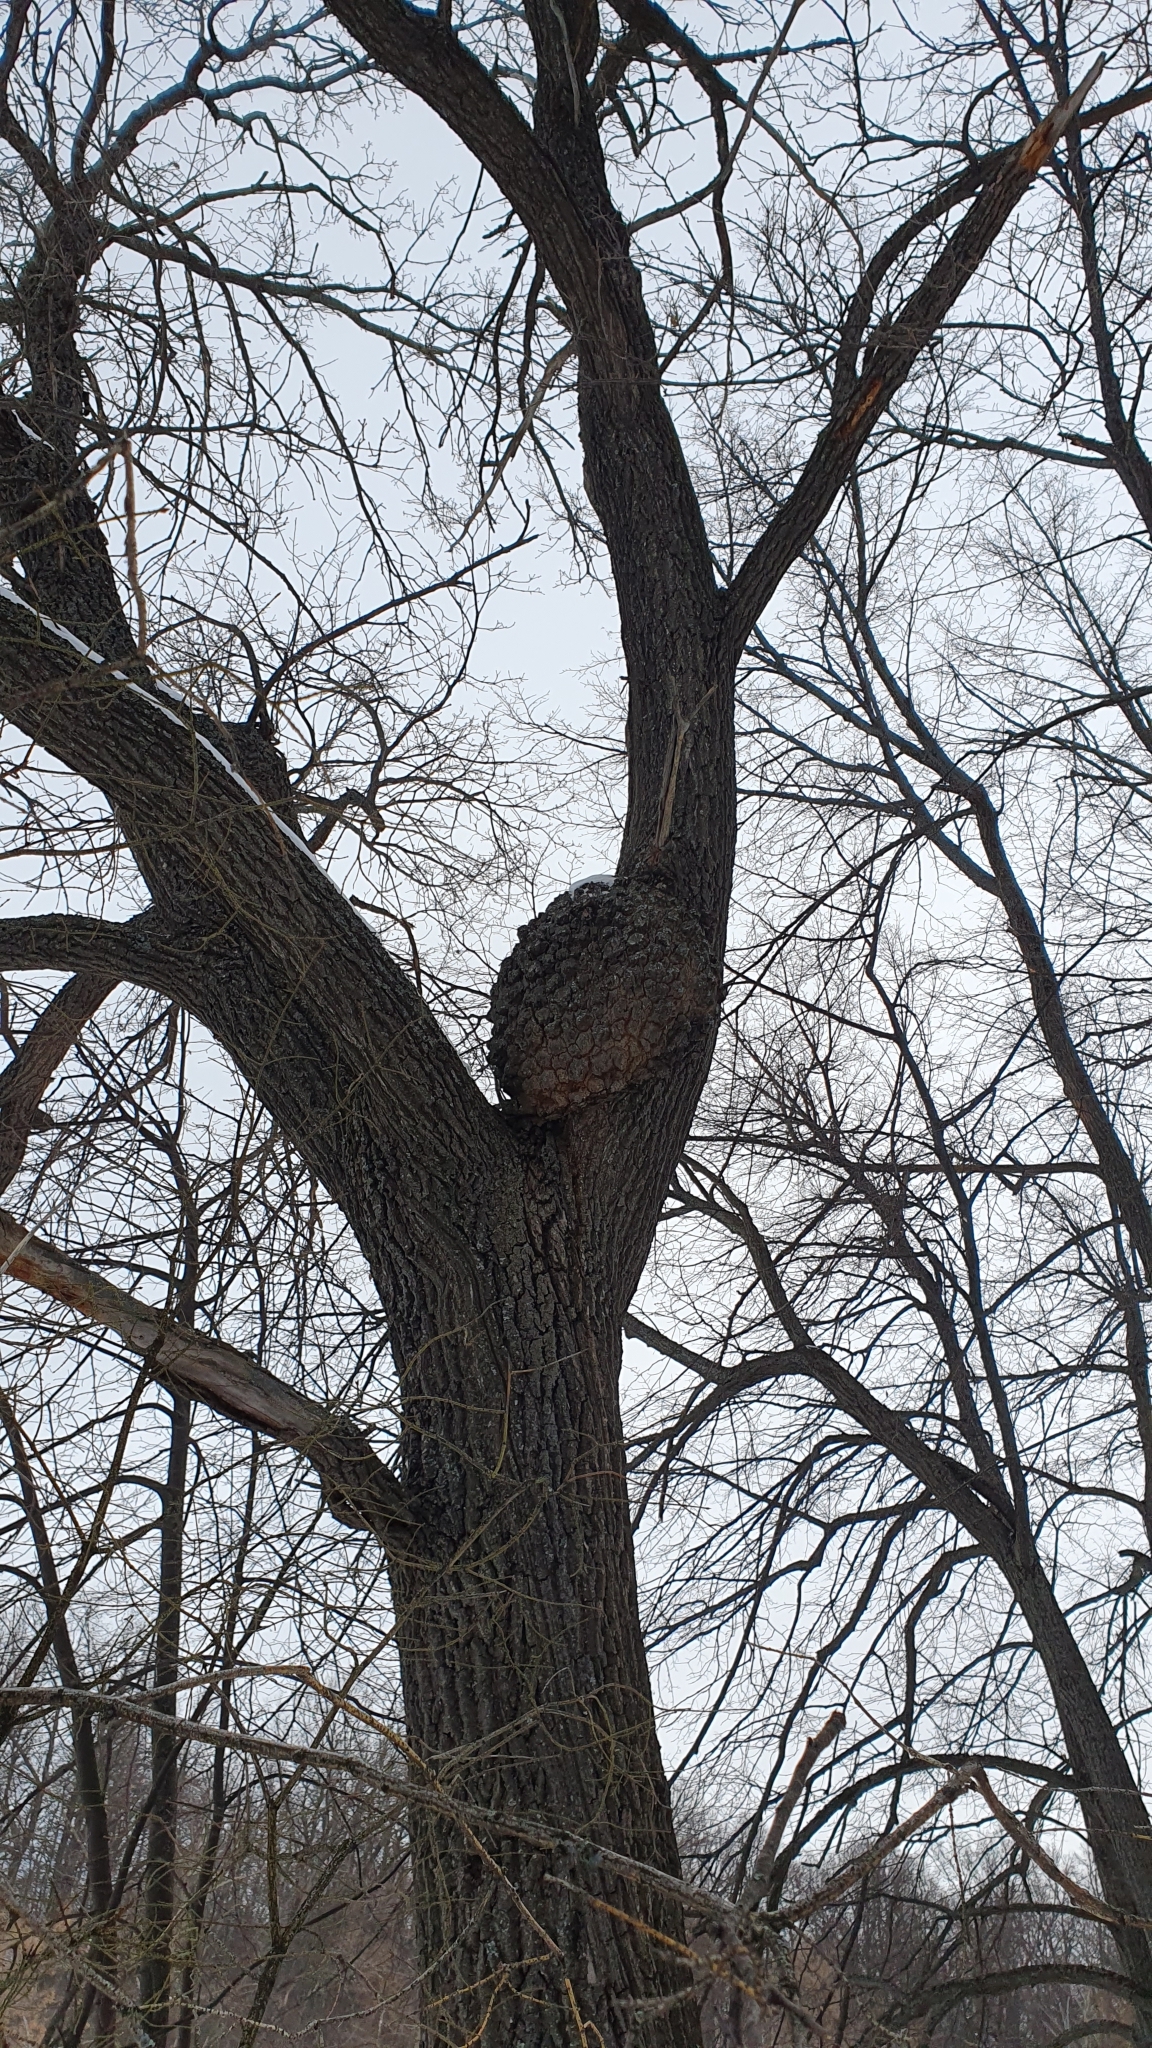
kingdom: Bacteria
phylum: Proteobacteria
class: Alphaproteobacteria
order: Rhizobiales
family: Rhizobiaceae
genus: Rhizobium
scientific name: Rhizobium Agrobacterium radiobacter
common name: Bacterial crown gall
